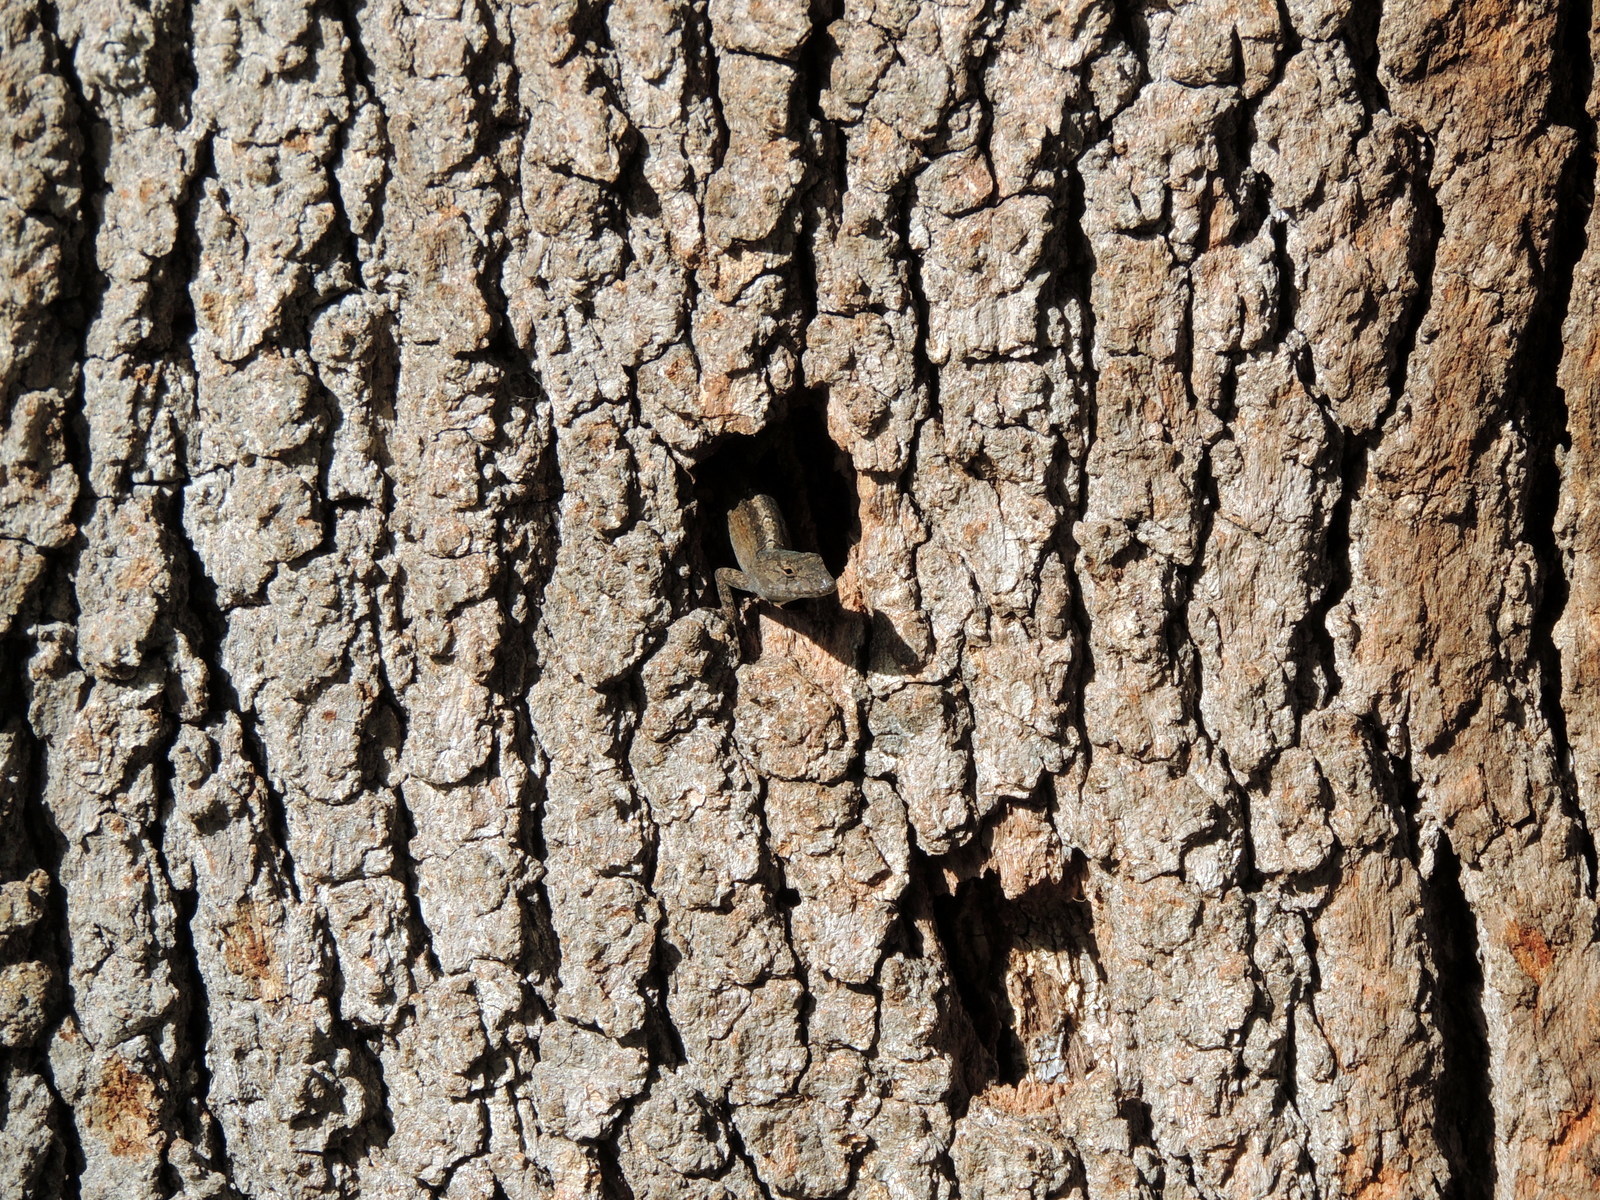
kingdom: Animalia
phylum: Chordata
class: Squamata
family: Dactyloidae
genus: Anolis
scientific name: Anolis sagrei
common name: Brown anole
